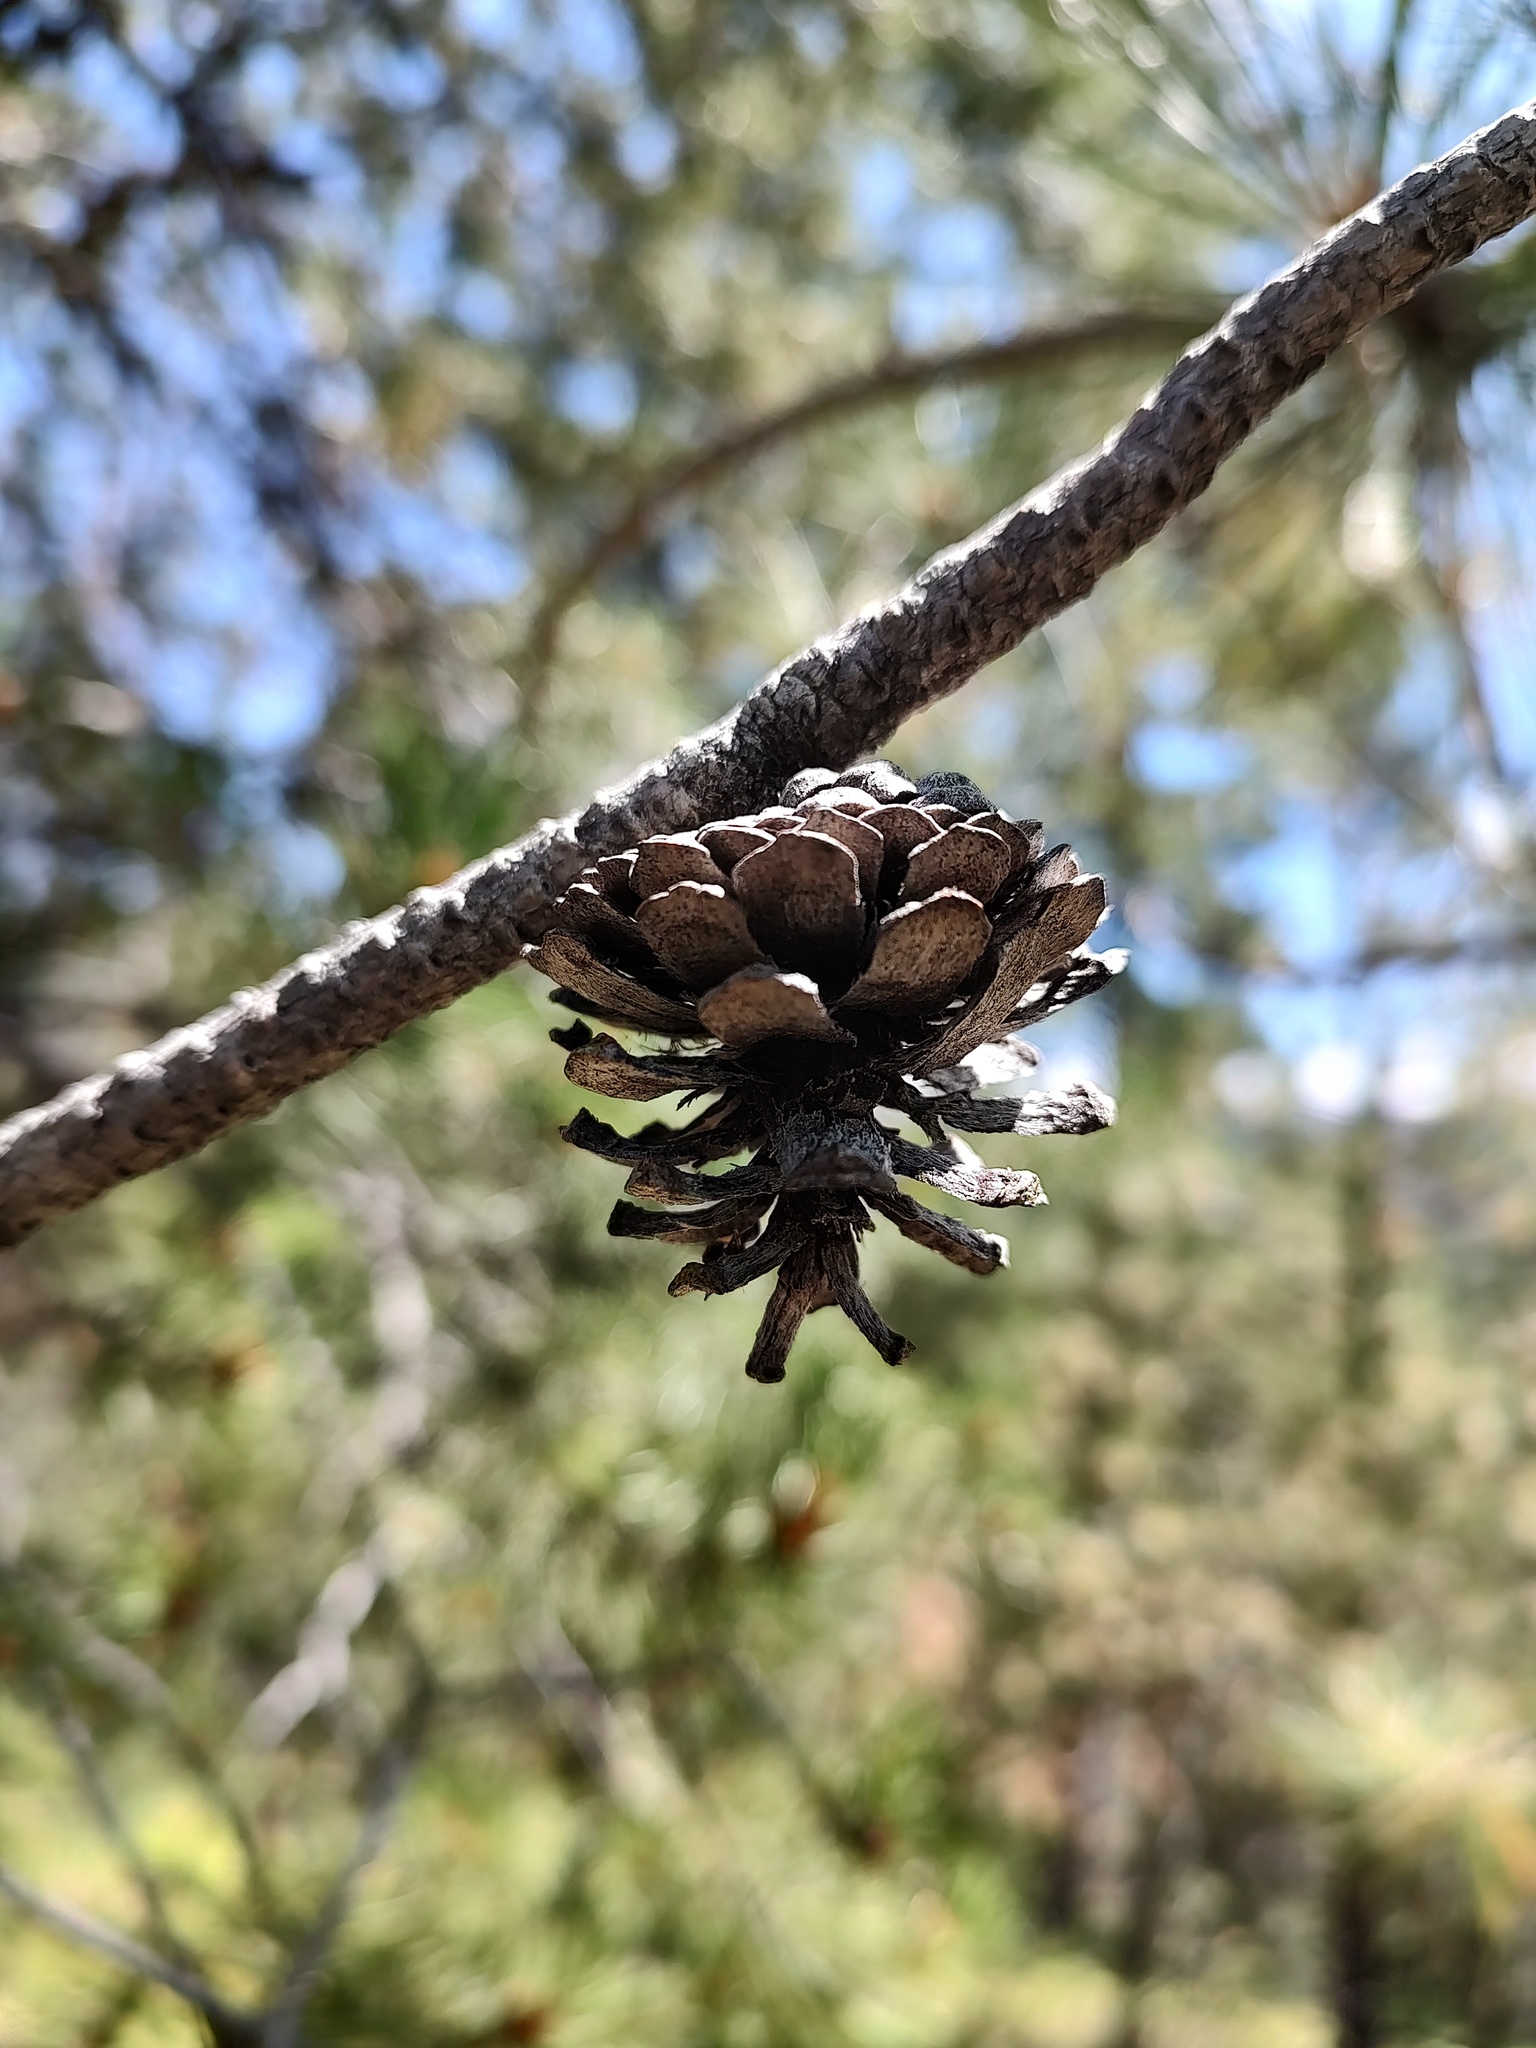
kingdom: Plantae
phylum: Tracheophyta
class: Pinopsida
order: Pinales
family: Pinaceae
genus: Pinus
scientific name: Pinus contorta
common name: Lodgepole pine
